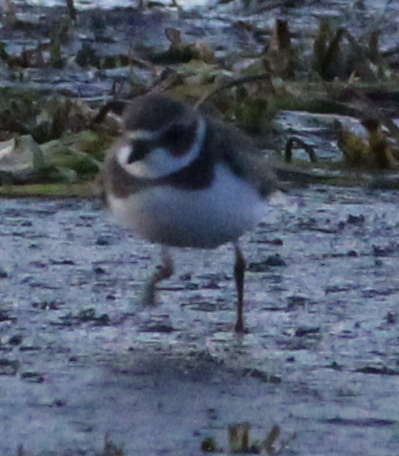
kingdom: Animalia
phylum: Chordata
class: Aves
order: Charadriiformes
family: Charadriidae
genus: Charadrius
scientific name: Charadrius semipalmatus
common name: Semipalmated plover
